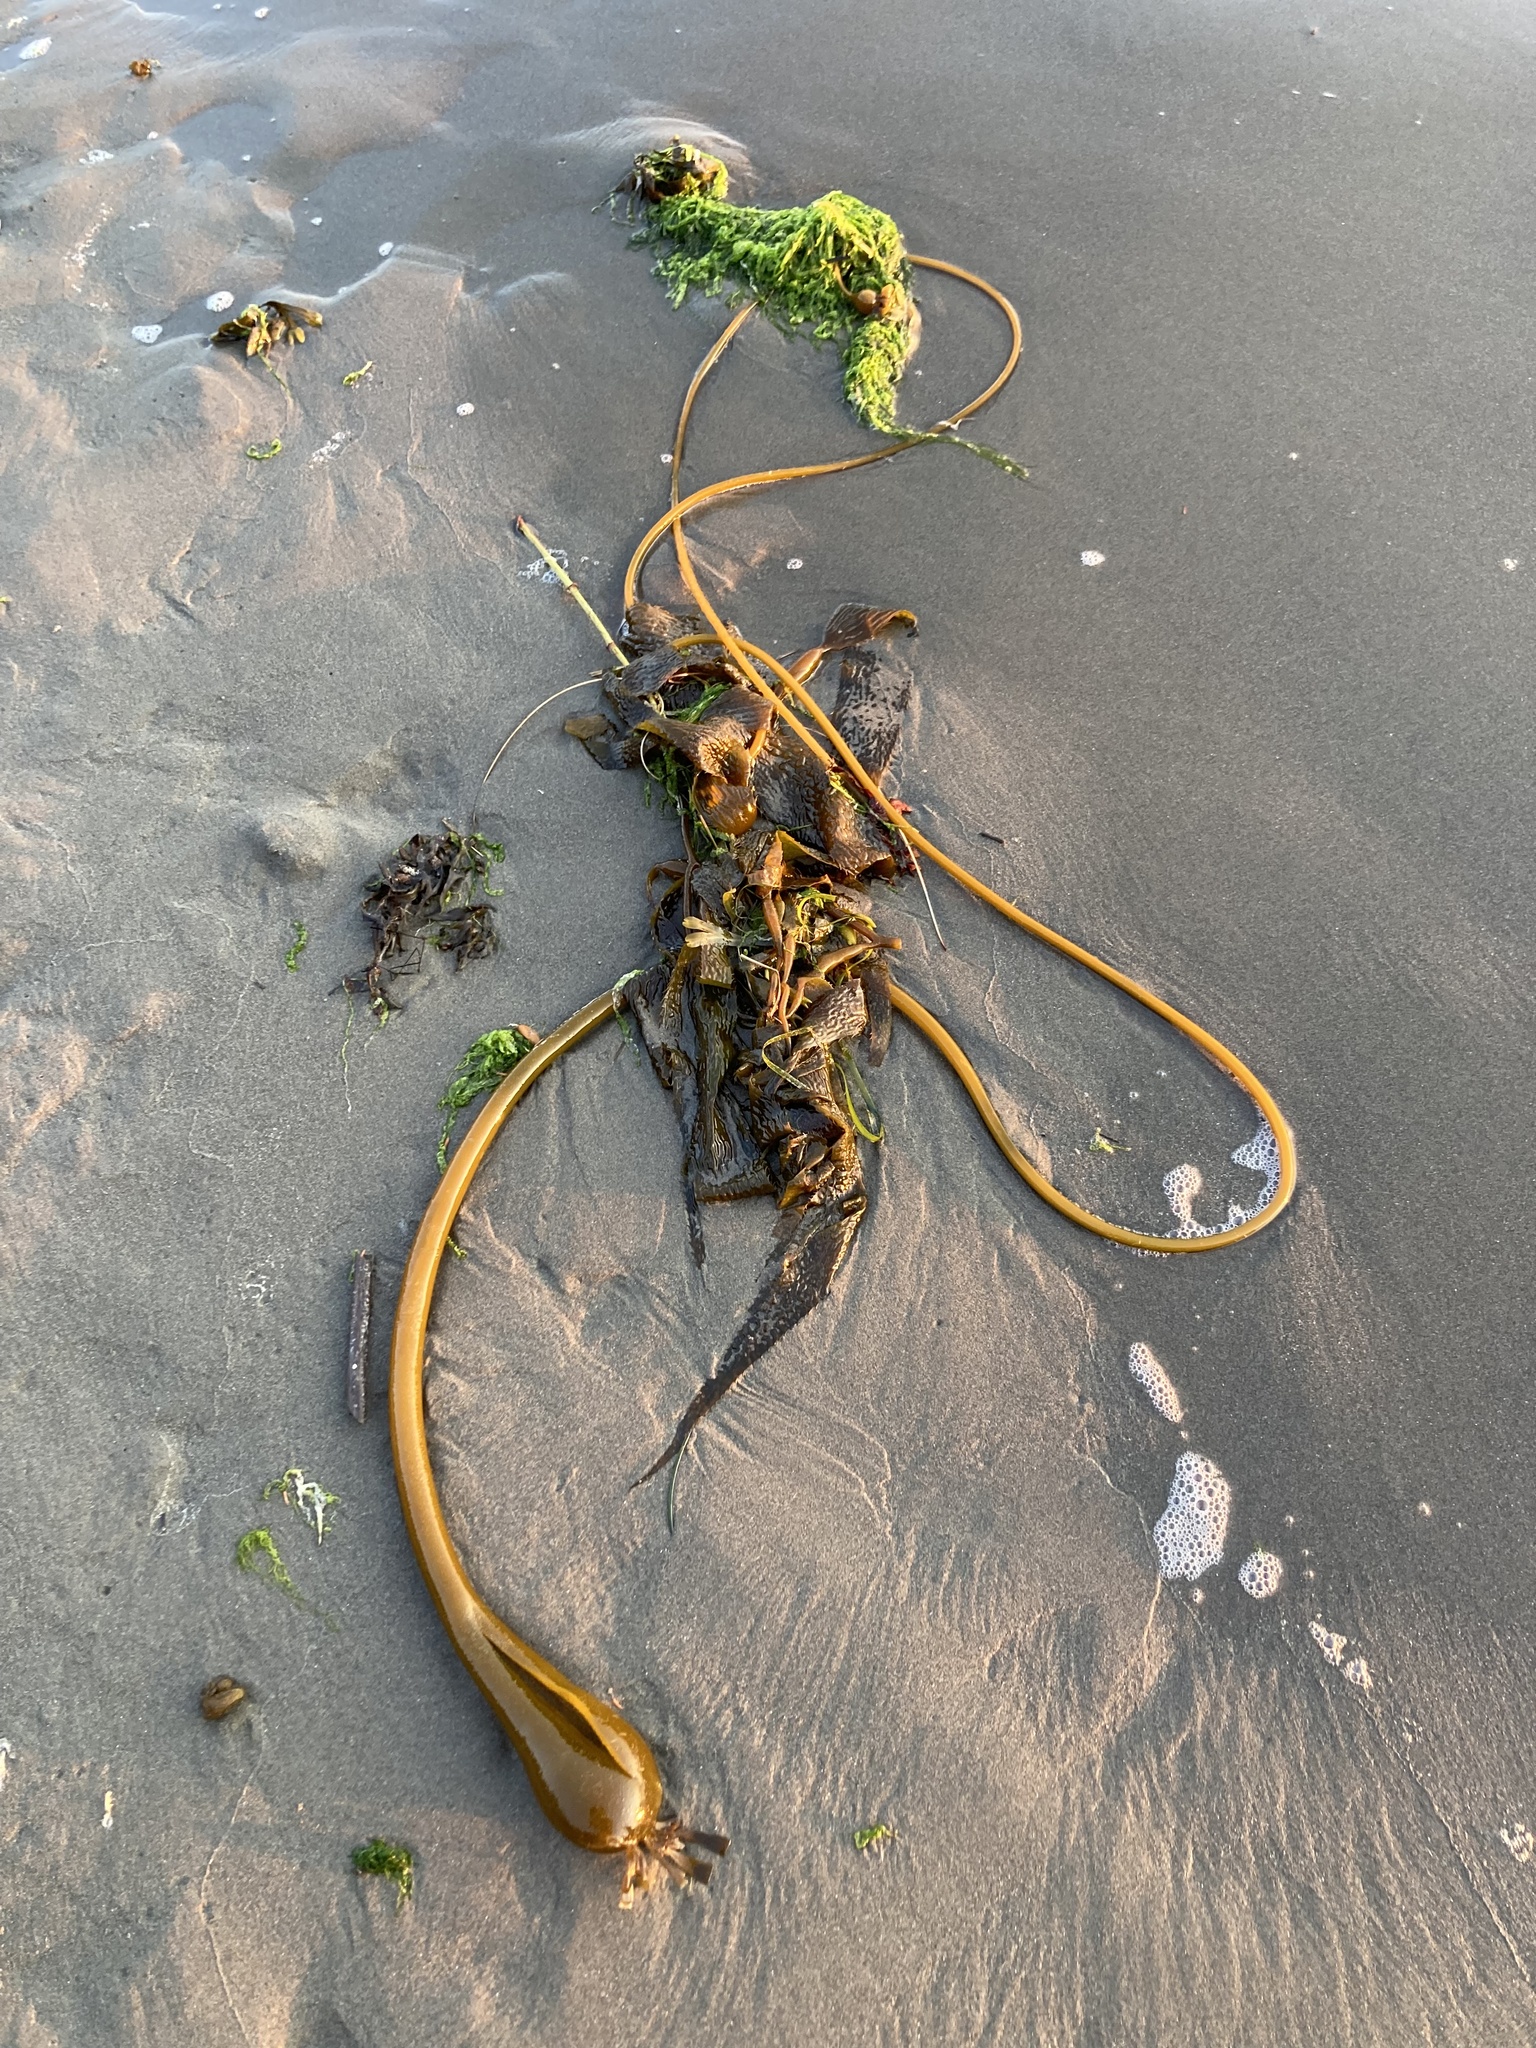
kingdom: Chromista
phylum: Ochrophyta
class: Phaeophyceae
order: Laminariales
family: Laminariaceae
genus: Nereocystis
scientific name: Nereocystis luetkeana
